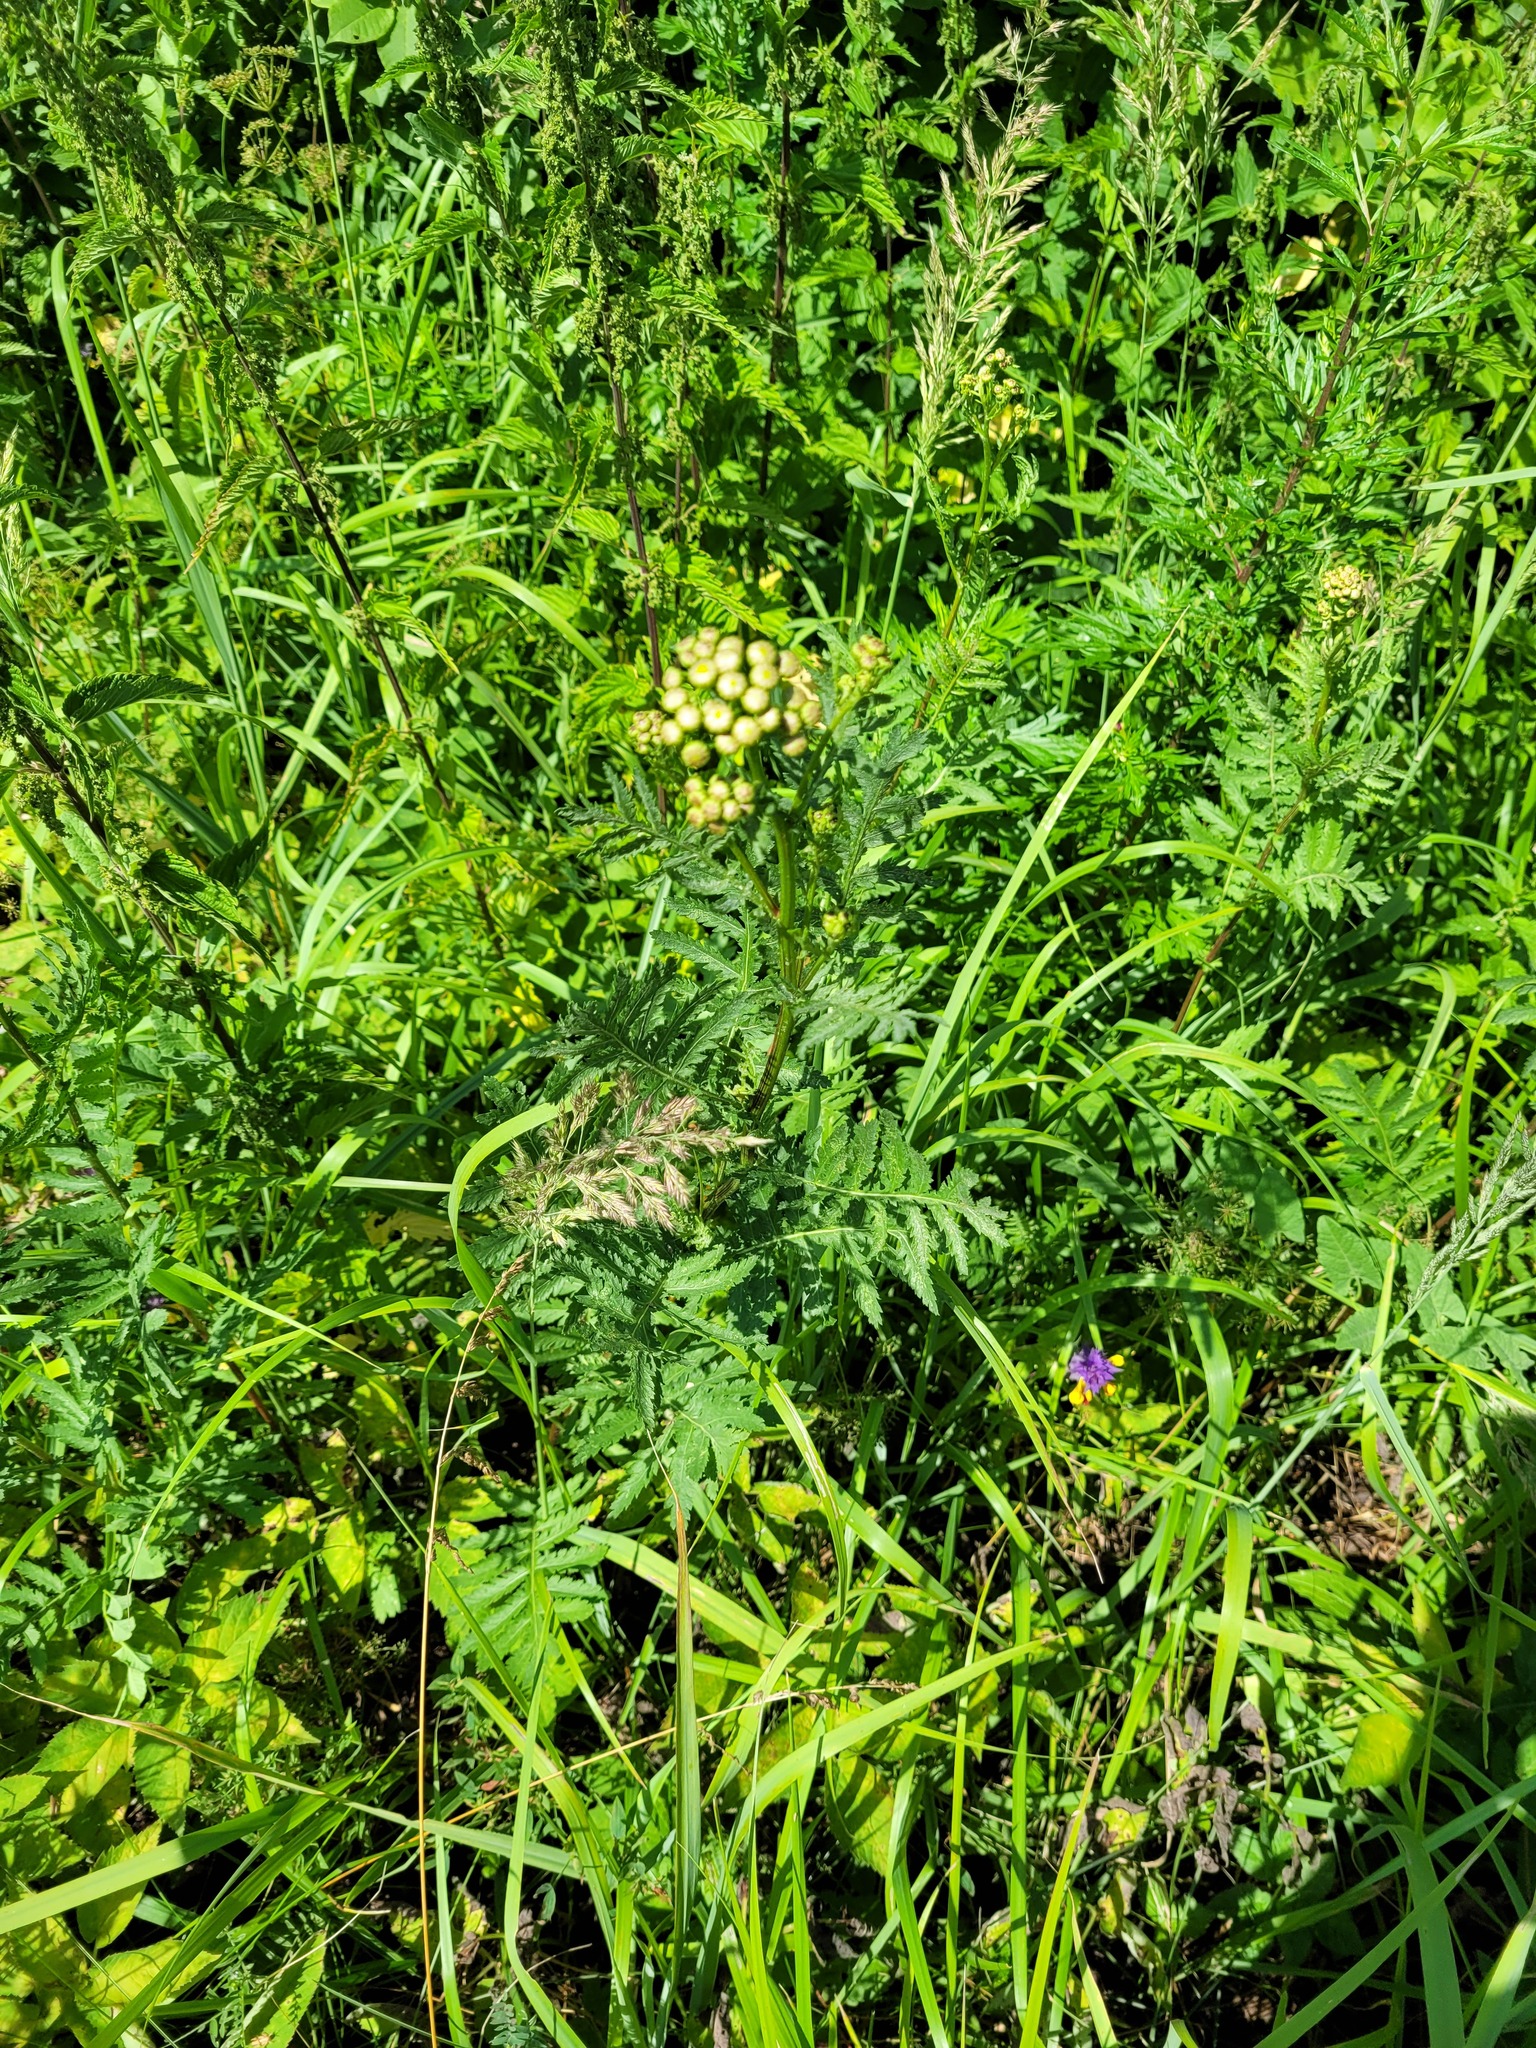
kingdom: Plantae
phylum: Tracheophyta
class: Magnoliopsida
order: Asterales
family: Asteraceae
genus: Tanacetum
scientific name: Tanacetum vulgare
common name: Common tansy
